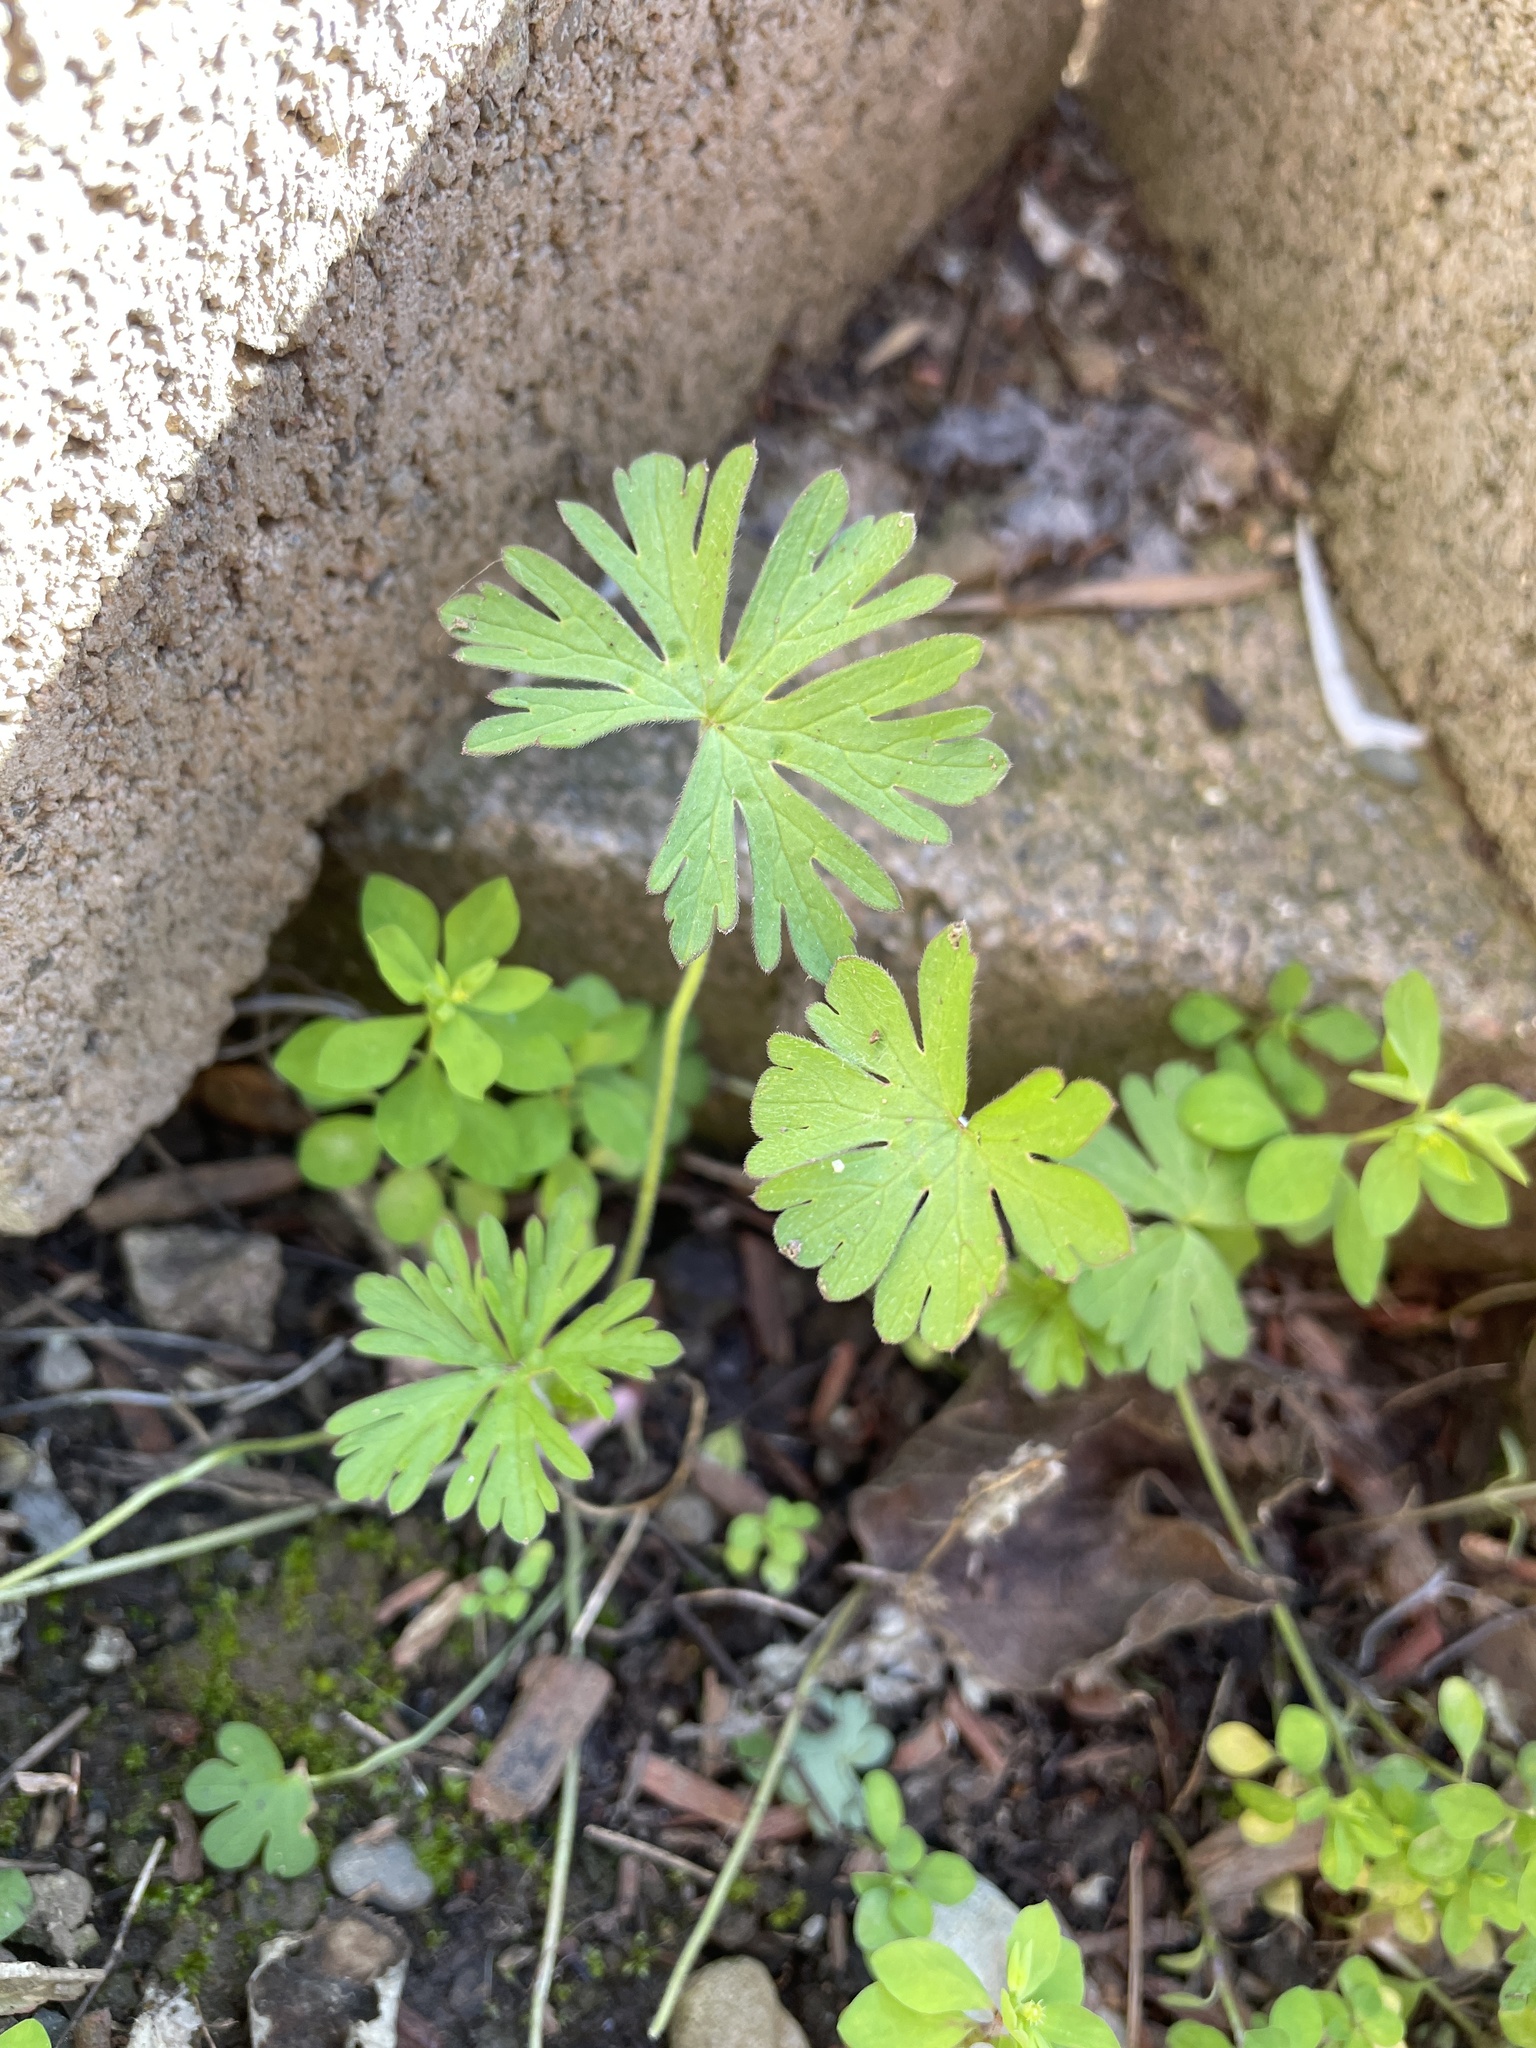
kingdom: Plantae
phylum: Tracheophyta
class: Magnoliopsida
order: Geraniales
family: Geraniaceae
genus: Geranium
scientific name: Geranium
